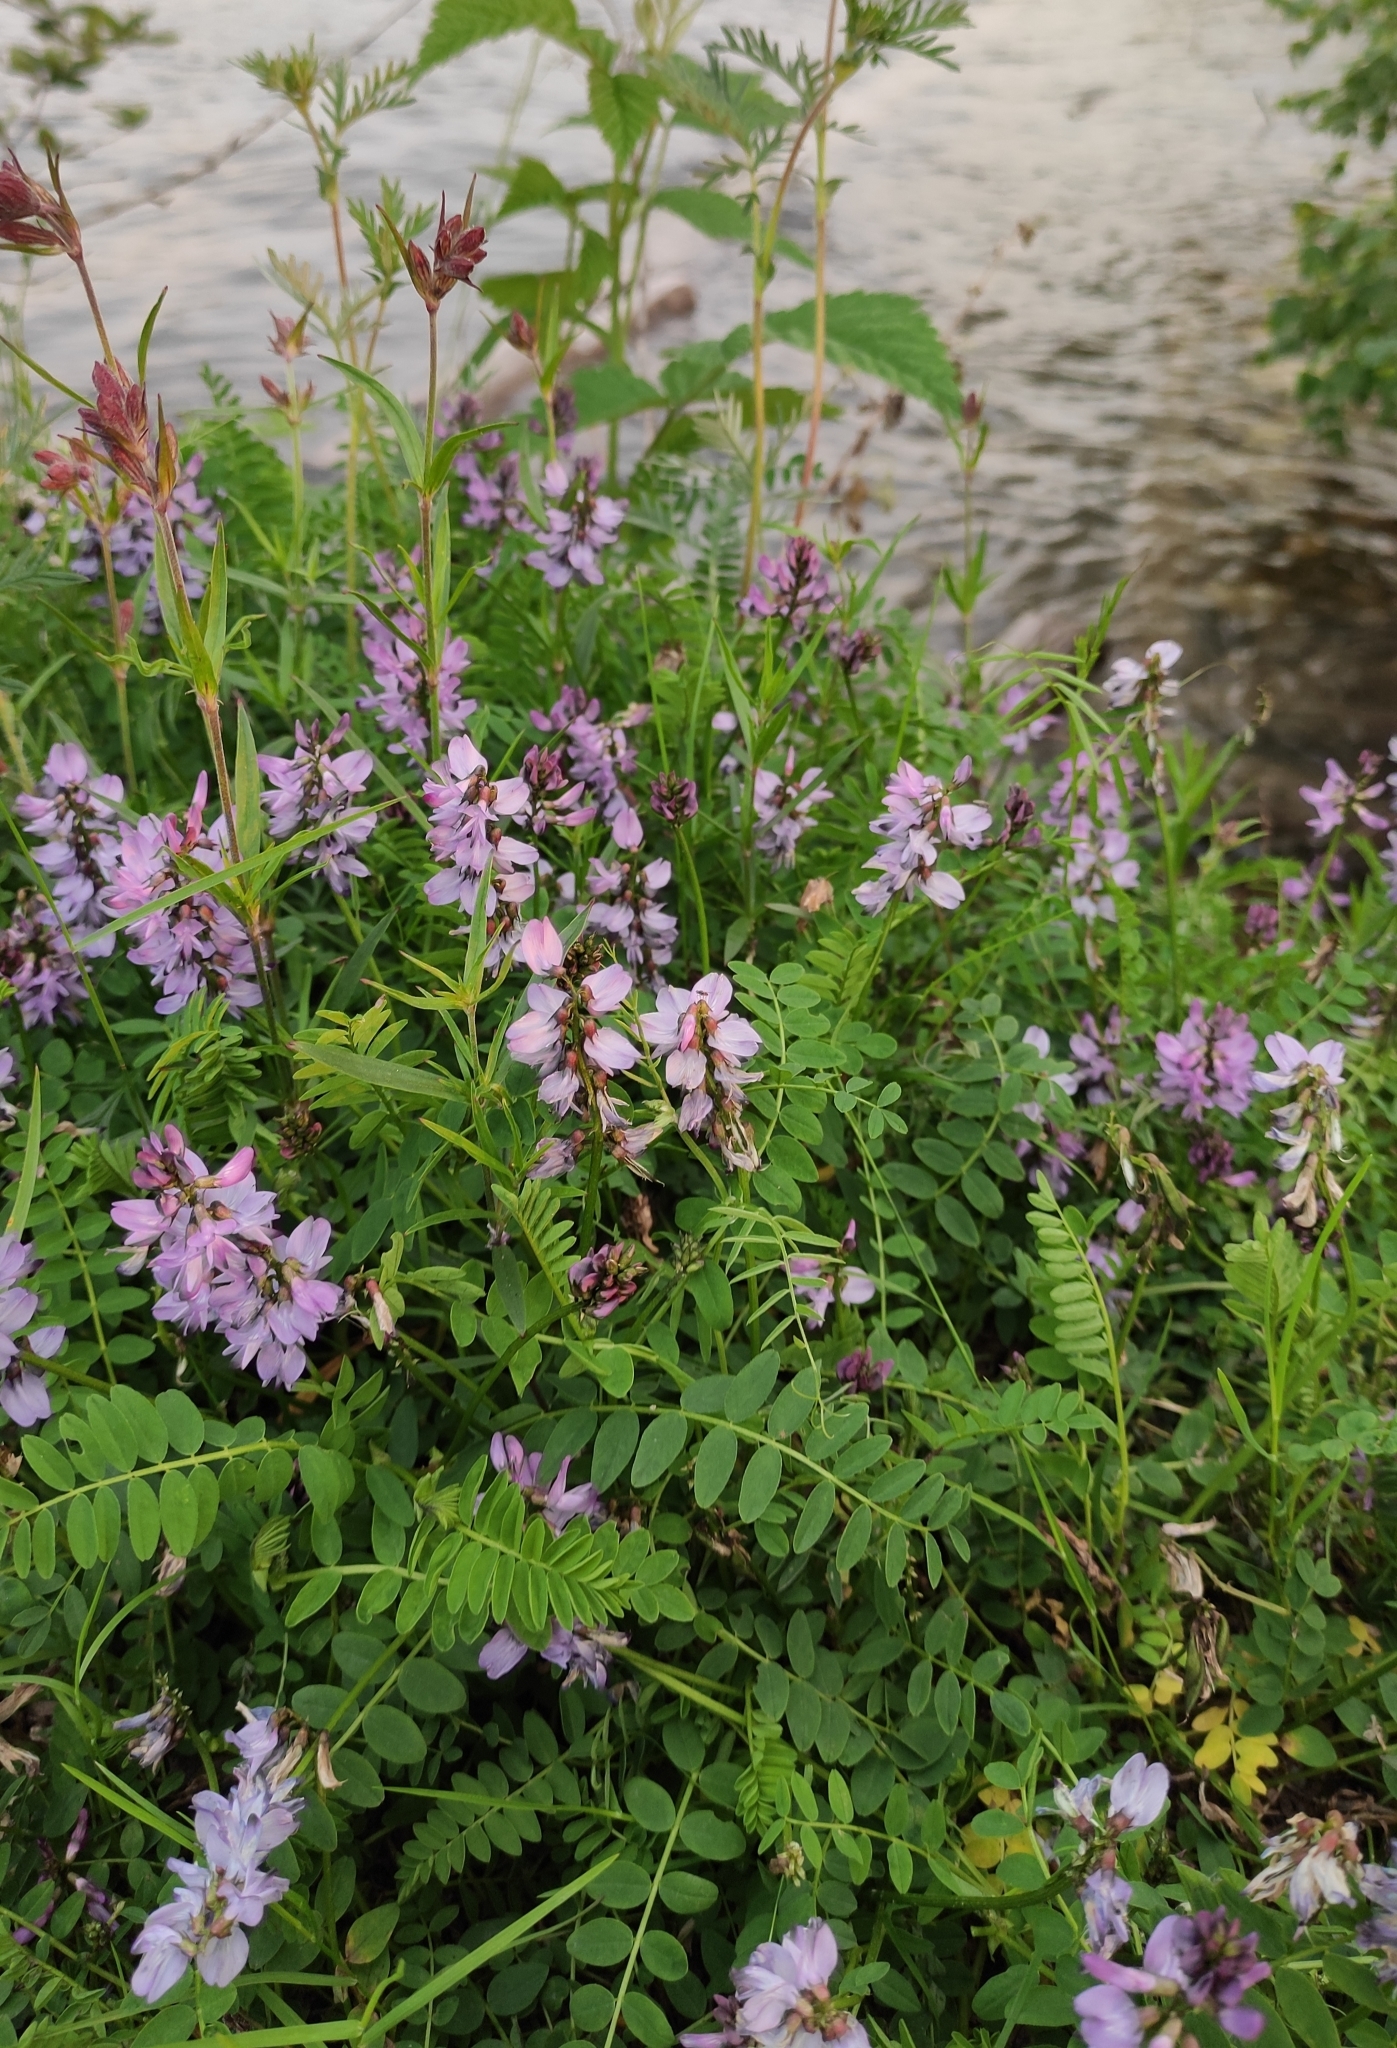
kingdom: Plantae
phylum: Tracheophyta
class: Magnoliopsida
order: Fabales
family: Fabaceae
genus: Astragalus
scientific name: Astragalus alpinus
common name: Alpine milk-vetch
